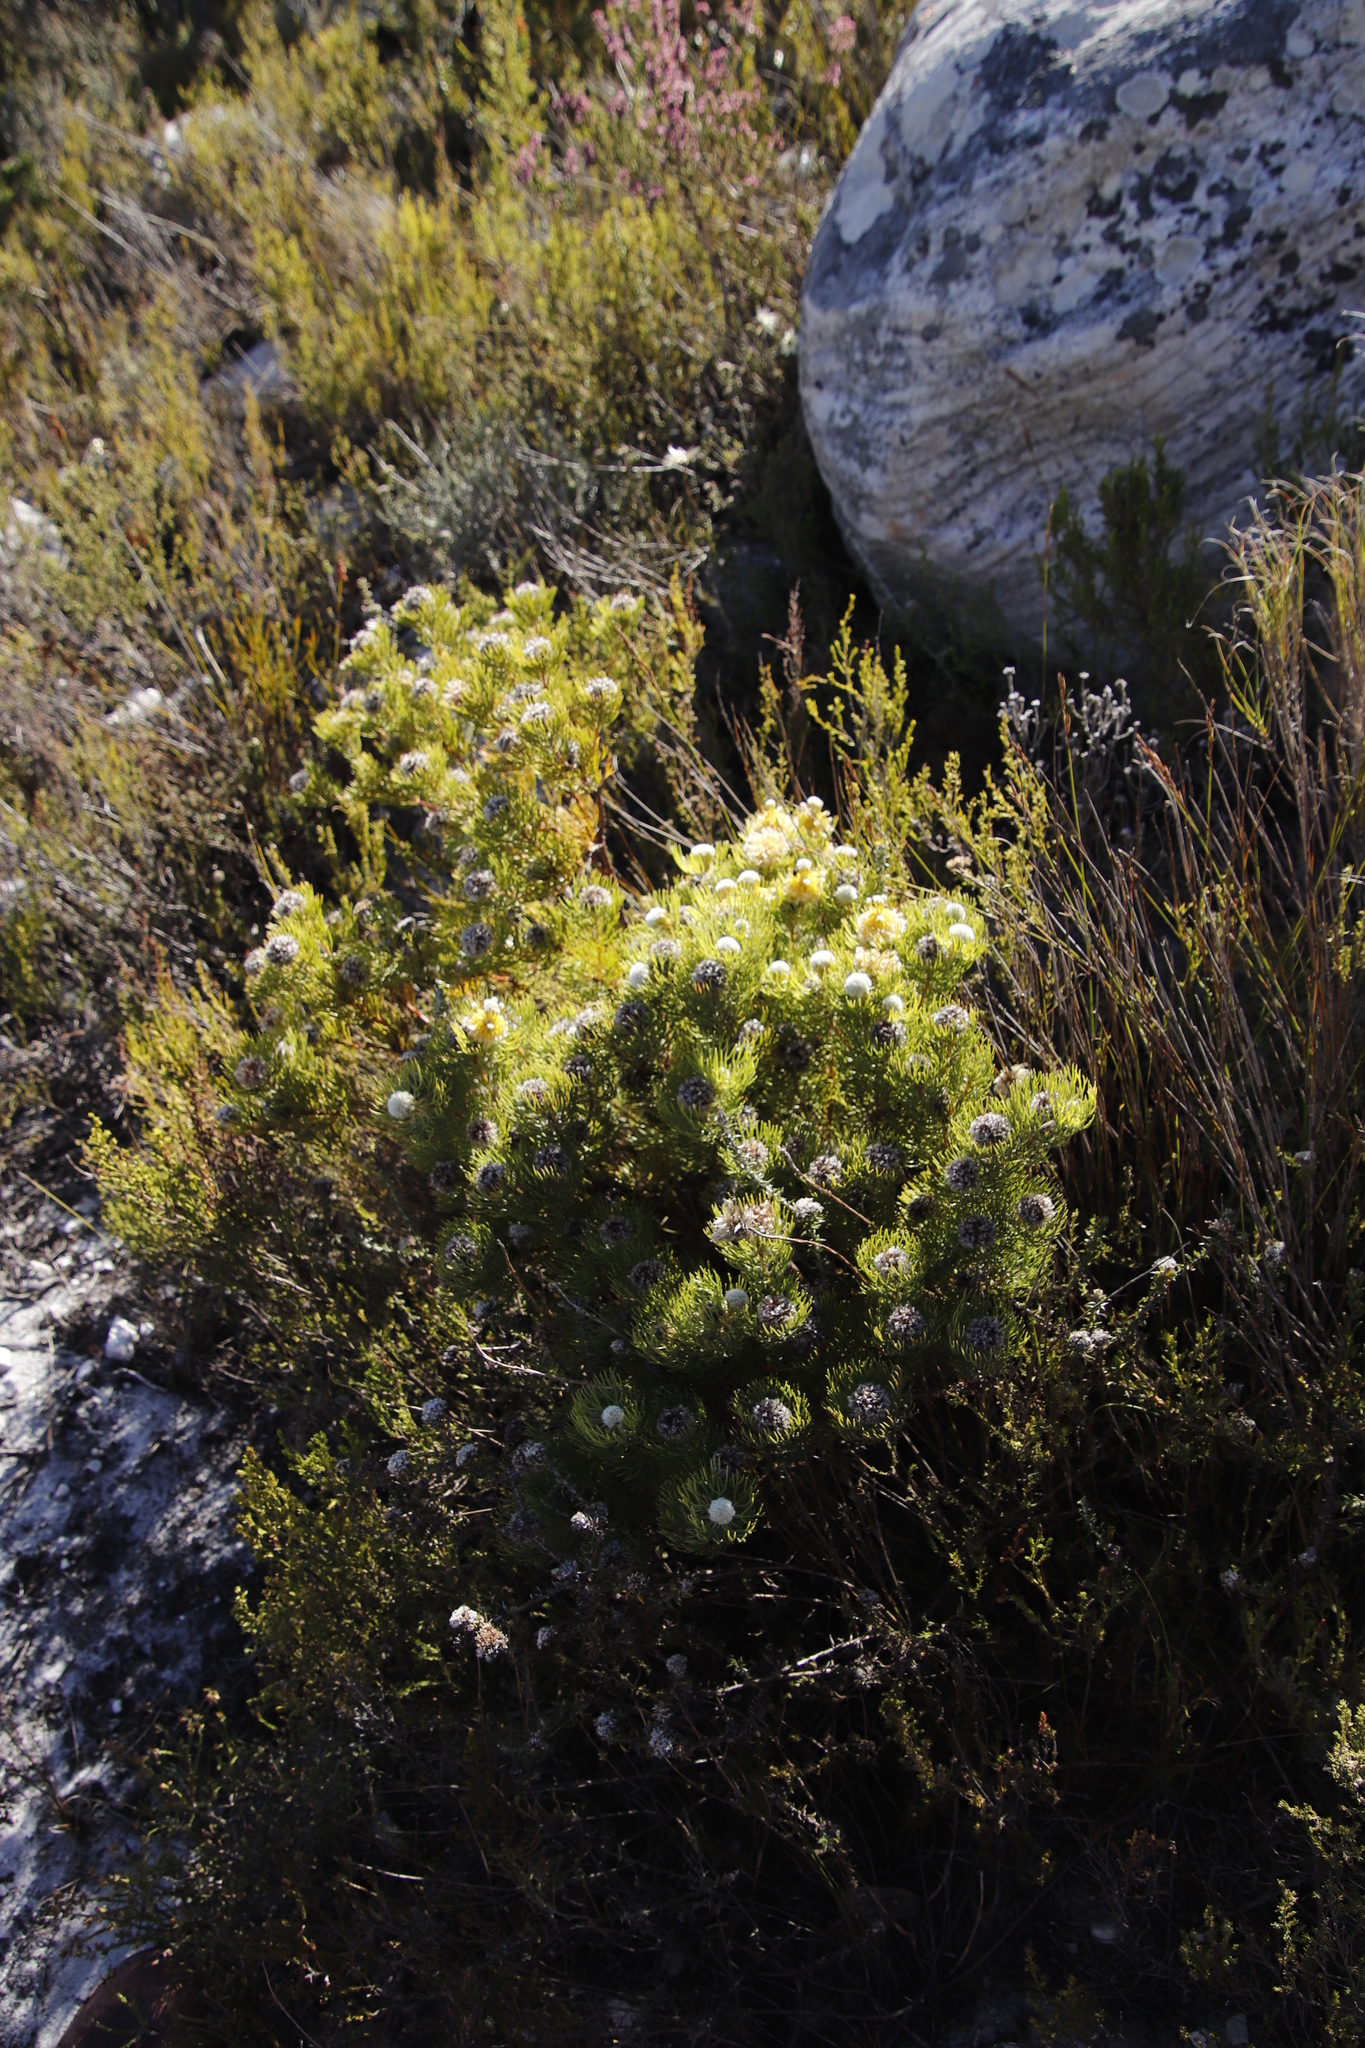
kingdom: Plantae
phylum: Tracheophyta
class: Magnoliopsida
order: Proteales
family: Proteaceae
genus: Serruria
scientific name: Serruria villosa
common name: Golden spiderhead
